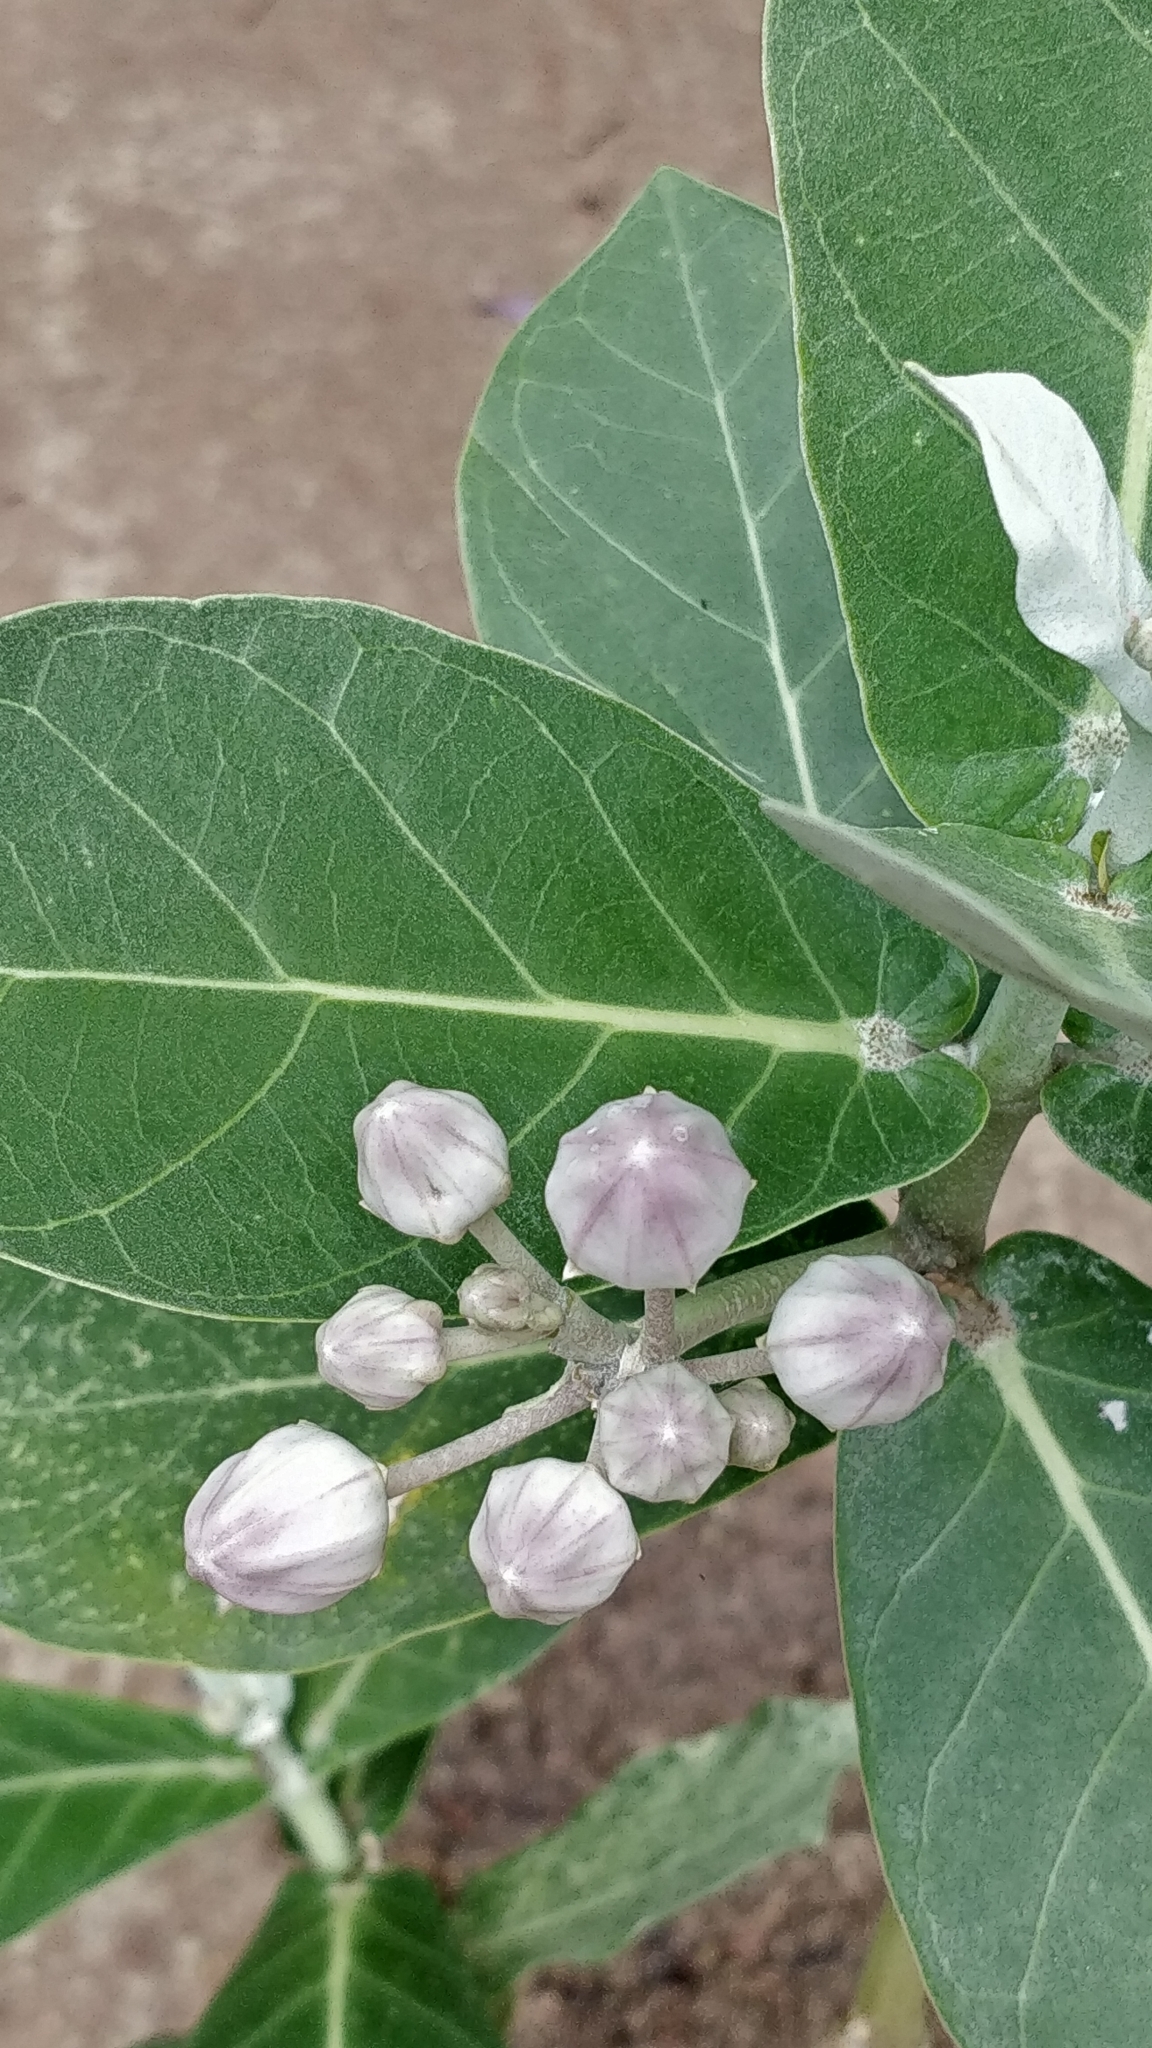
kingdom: Plantae
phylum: Tracheophyta
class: Magnoliopsida
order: Gentianales
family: Apocynaceae
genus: Calotropis
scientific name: Calotropis gigantea
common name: Crown flower
